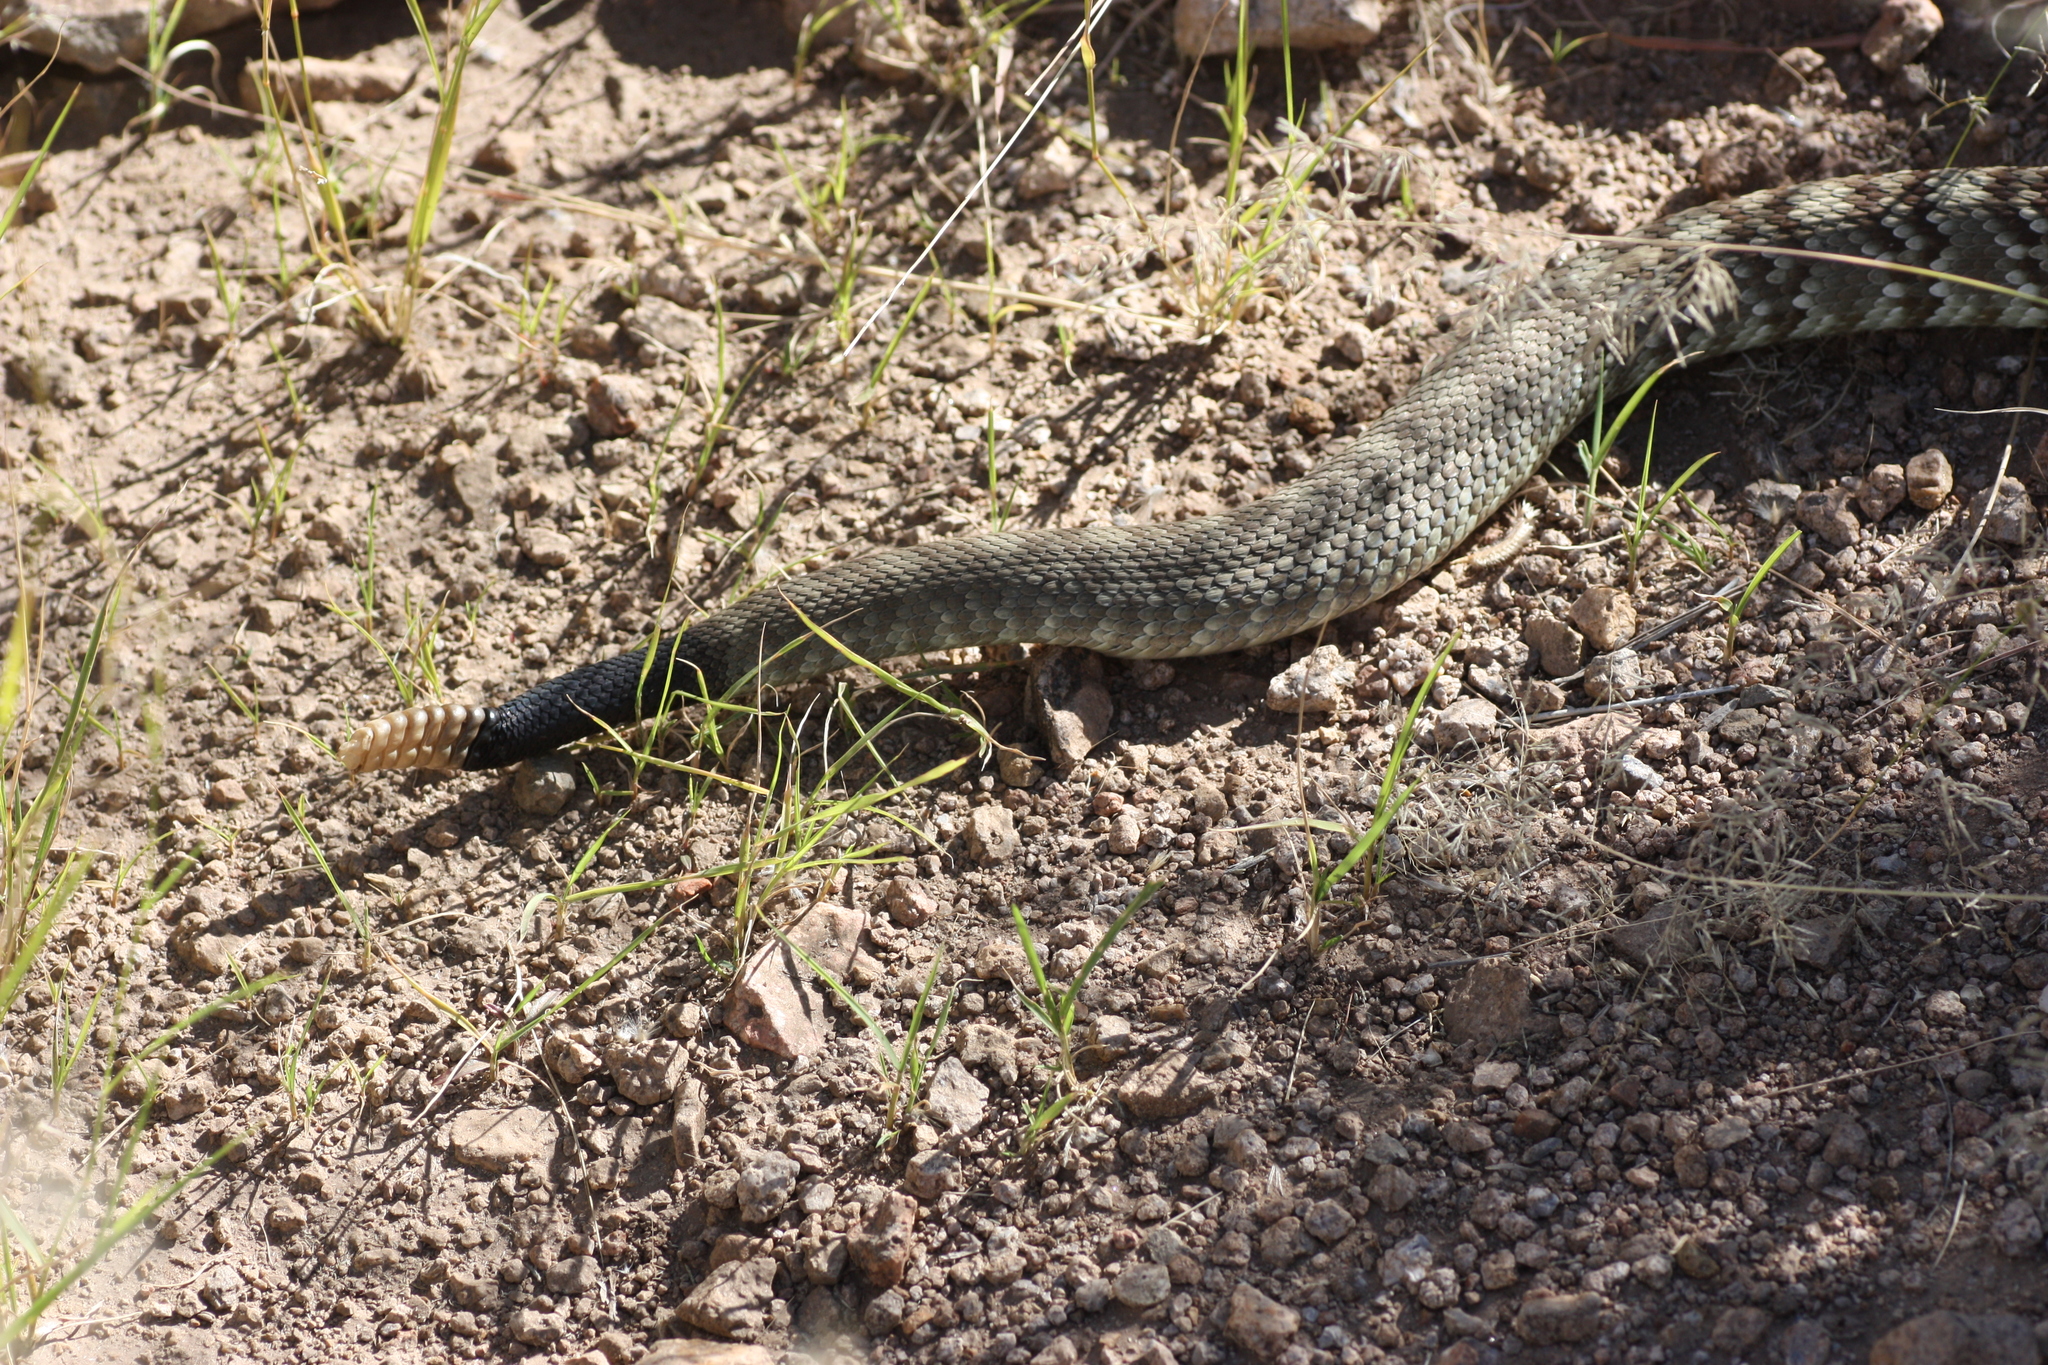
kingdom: Animalia
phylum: Chordata
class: Squamata
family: Viperidae
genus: Crotalus
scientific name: Crotalus ornatus
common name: Black-tailed rattlesnake
